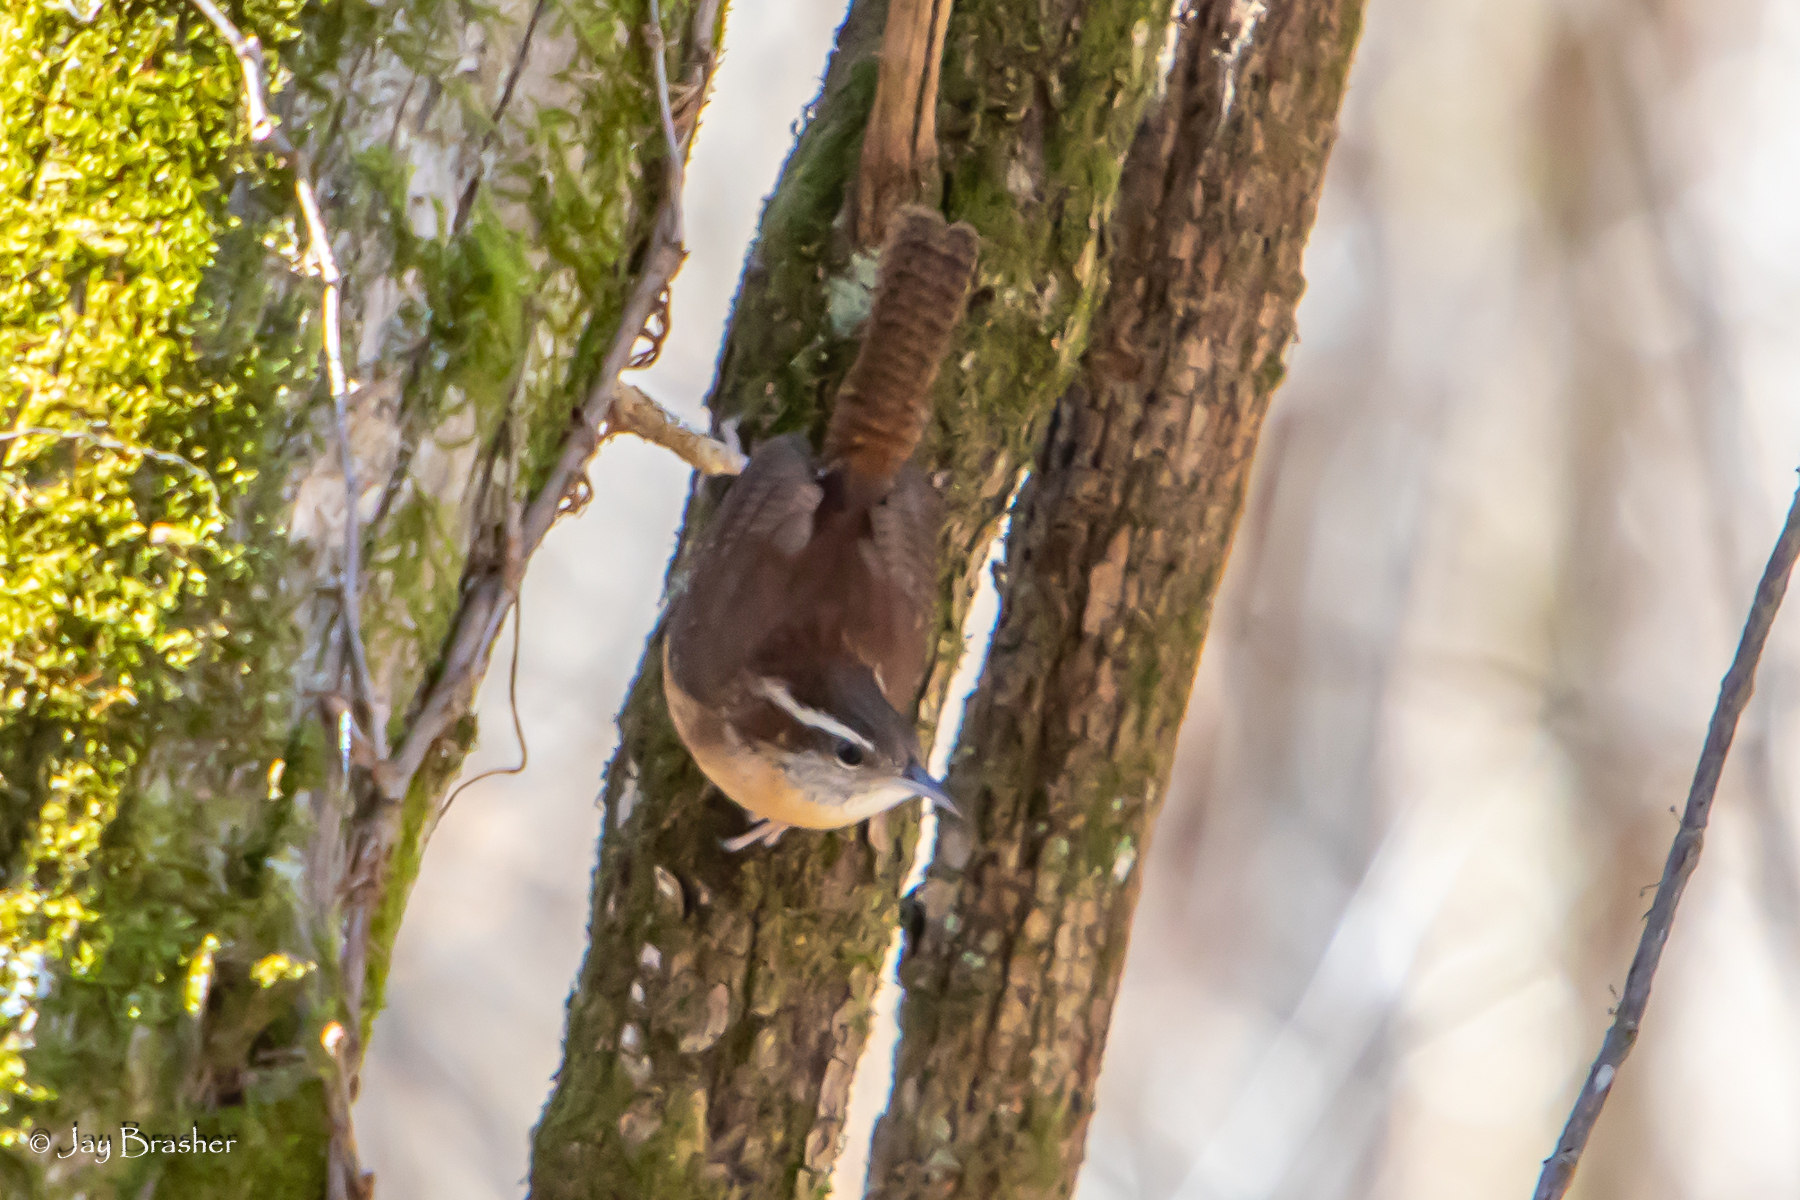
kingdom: Animalia
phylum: Chordata
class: Aves
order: Passeriformes
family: Troglodytidae
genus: Thryothorus
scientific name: Thryothorus ludovicianus
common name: Carolina wren
